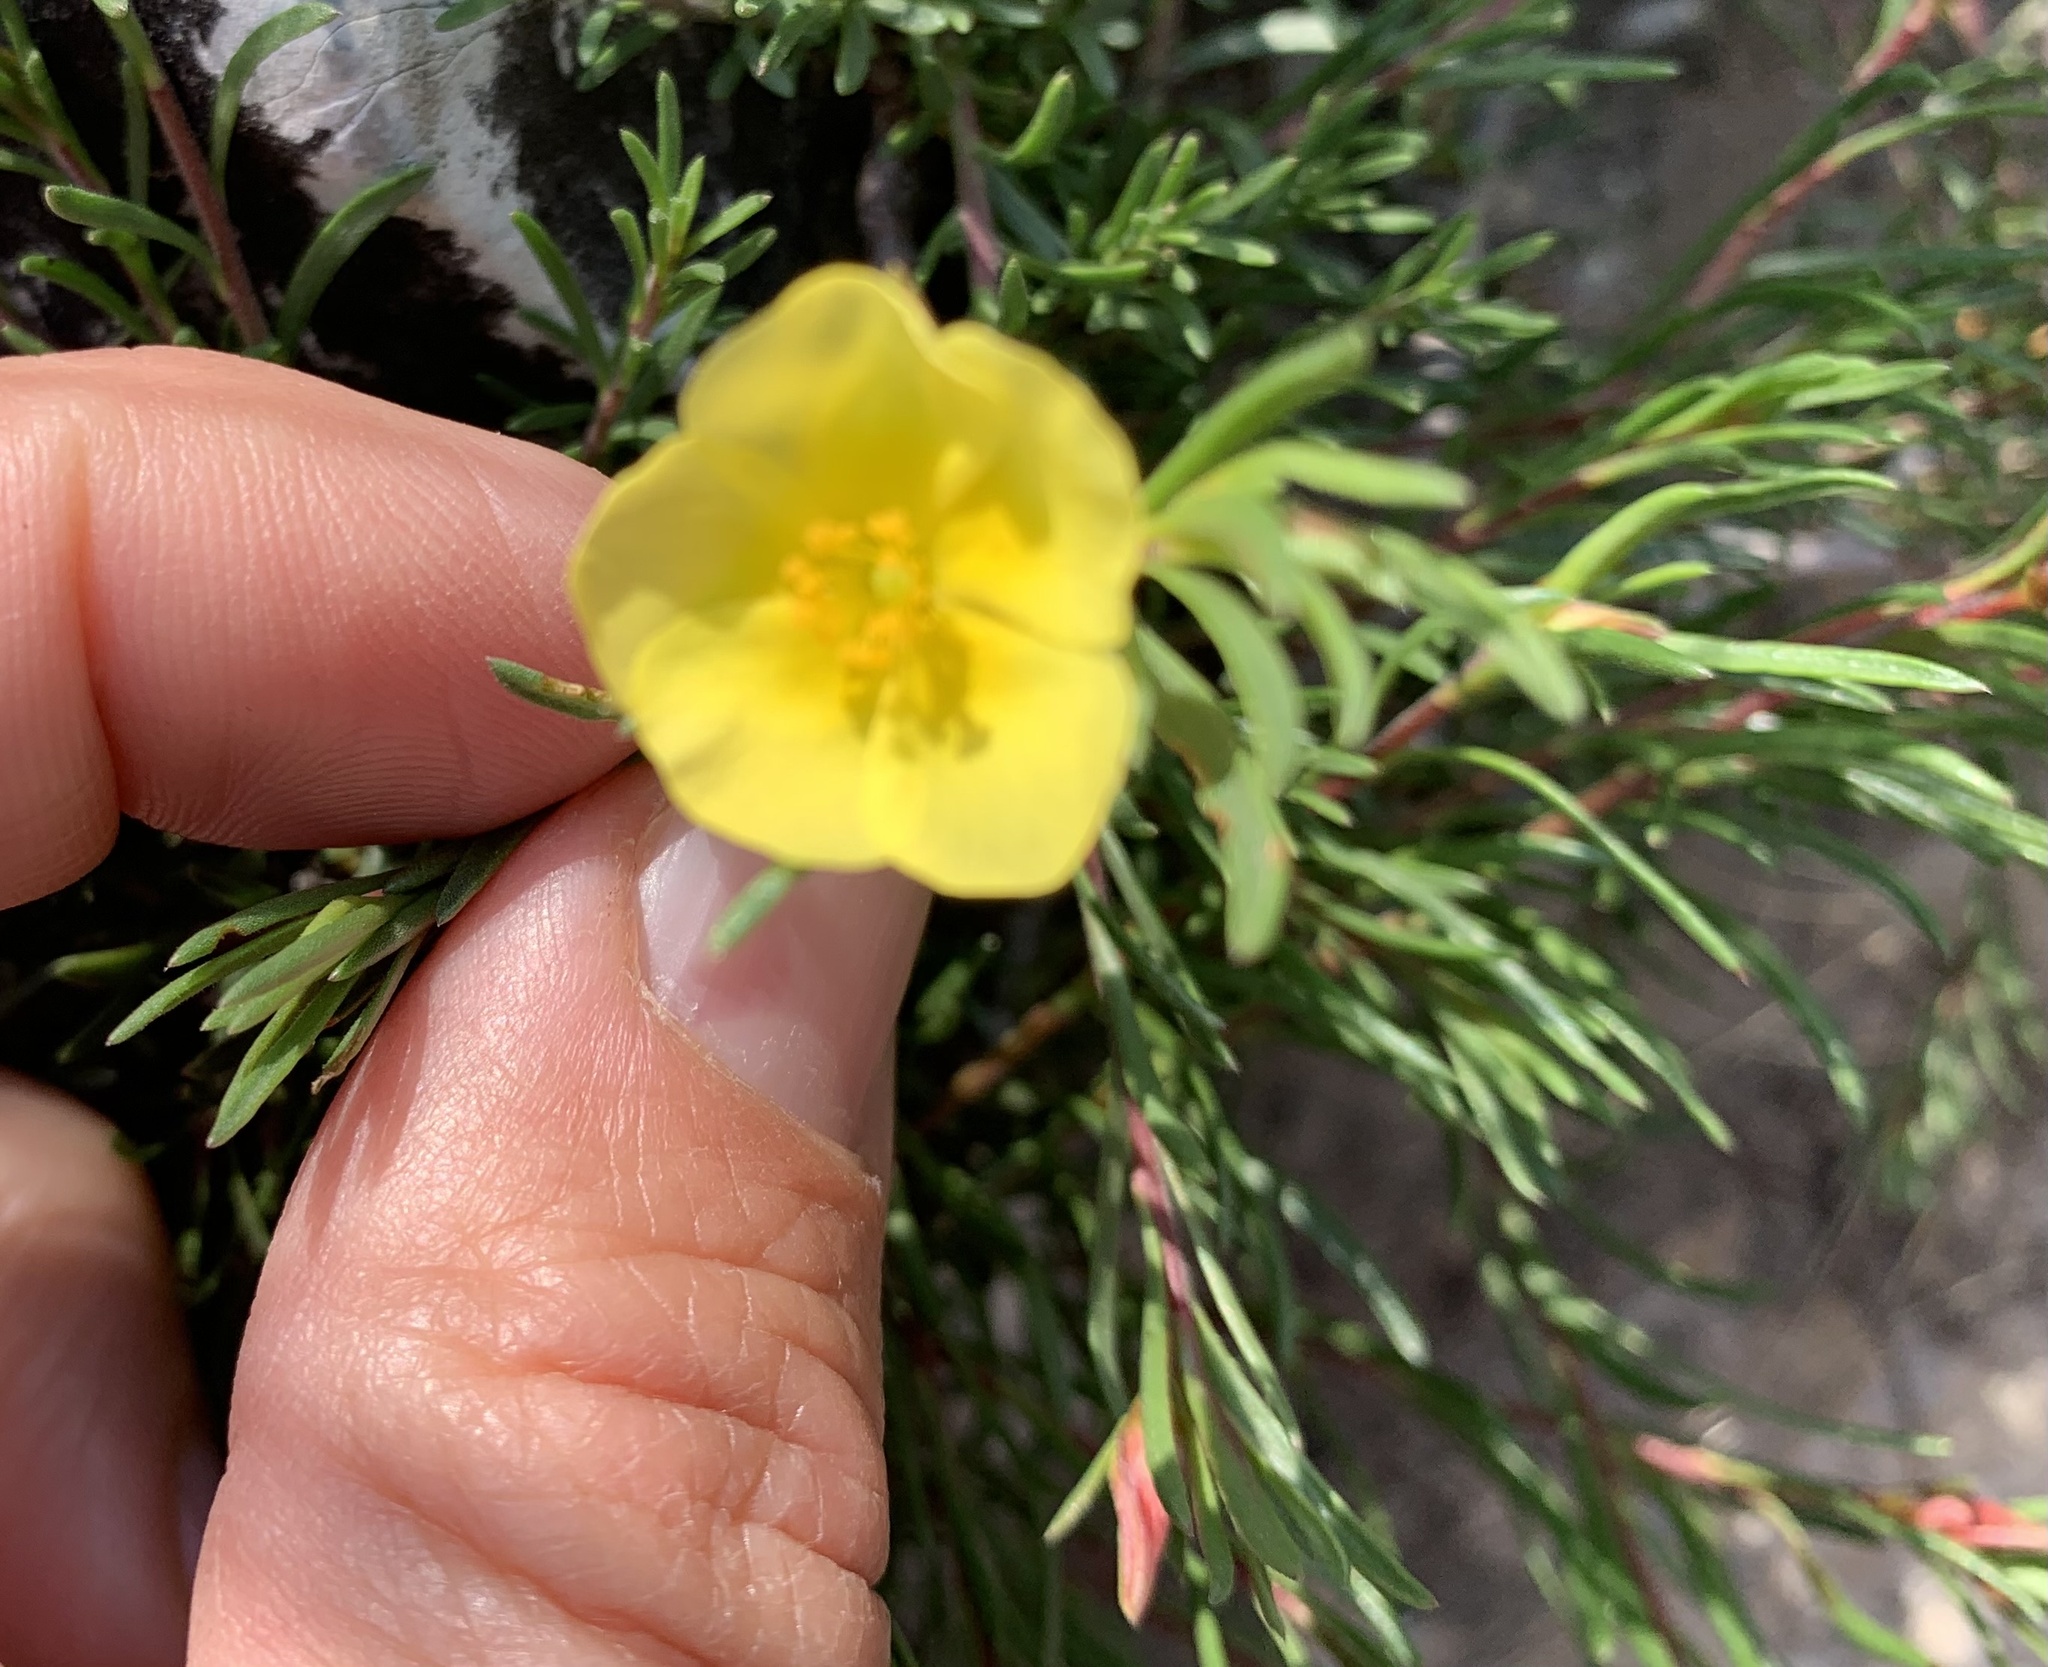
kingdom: Plantae
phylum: Tracheophyta
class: Magnoliopsida
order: Malvales
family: Cistaceae
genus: Fumana
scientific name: Fumana procumbens
